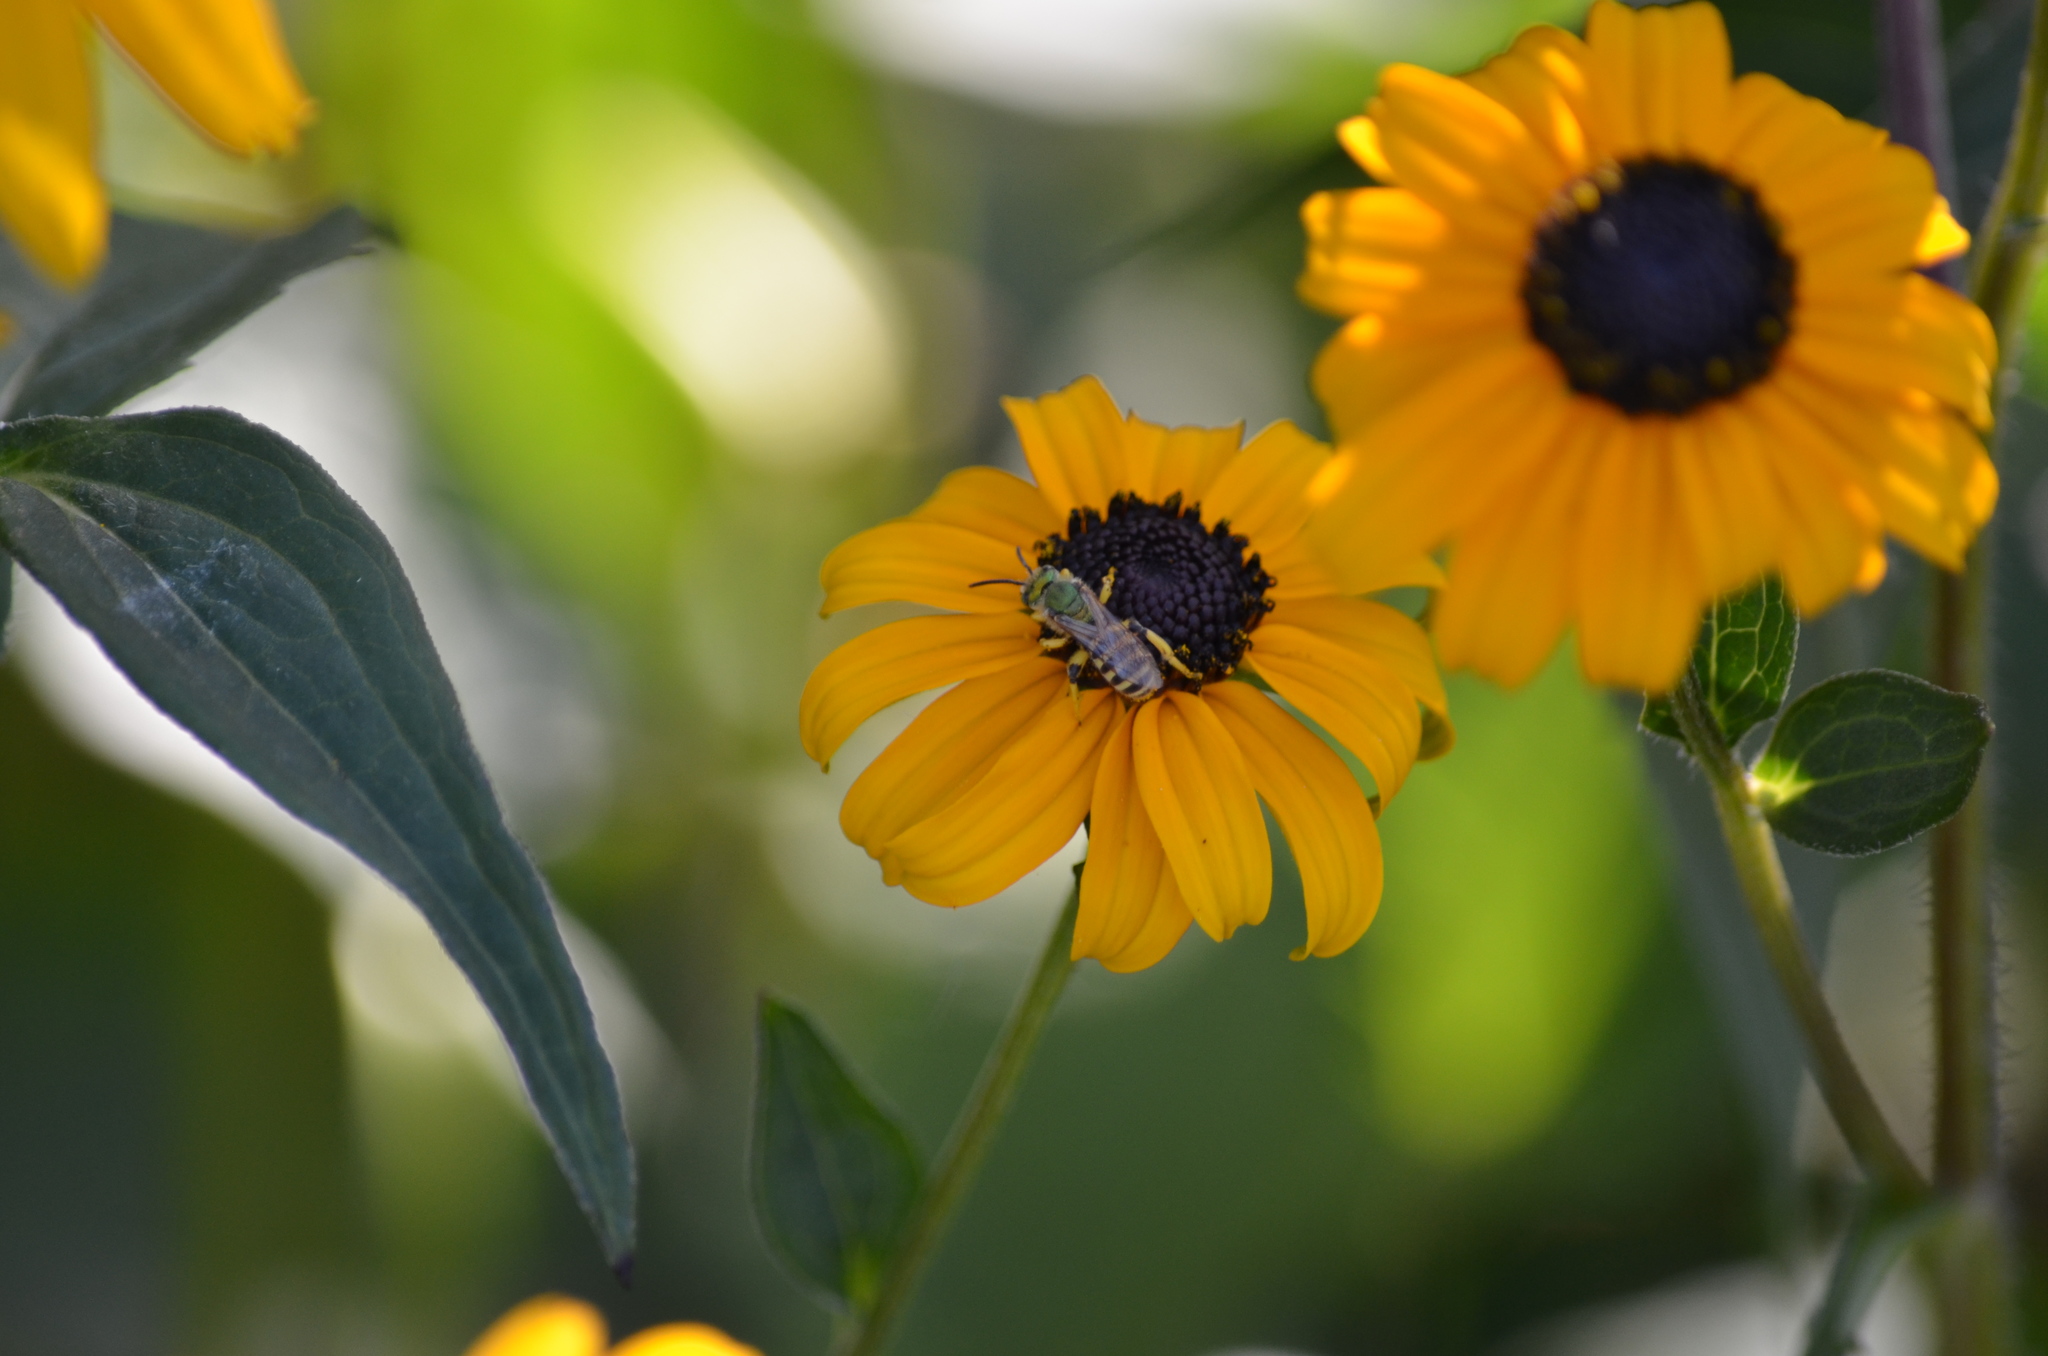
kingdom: Animalia
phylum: Arthropoda
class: Insecta
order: Hymenoptera
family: Halictidae
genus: Agapostemon
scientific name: Agapostemon texanus
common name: Texas striped sweat bee
